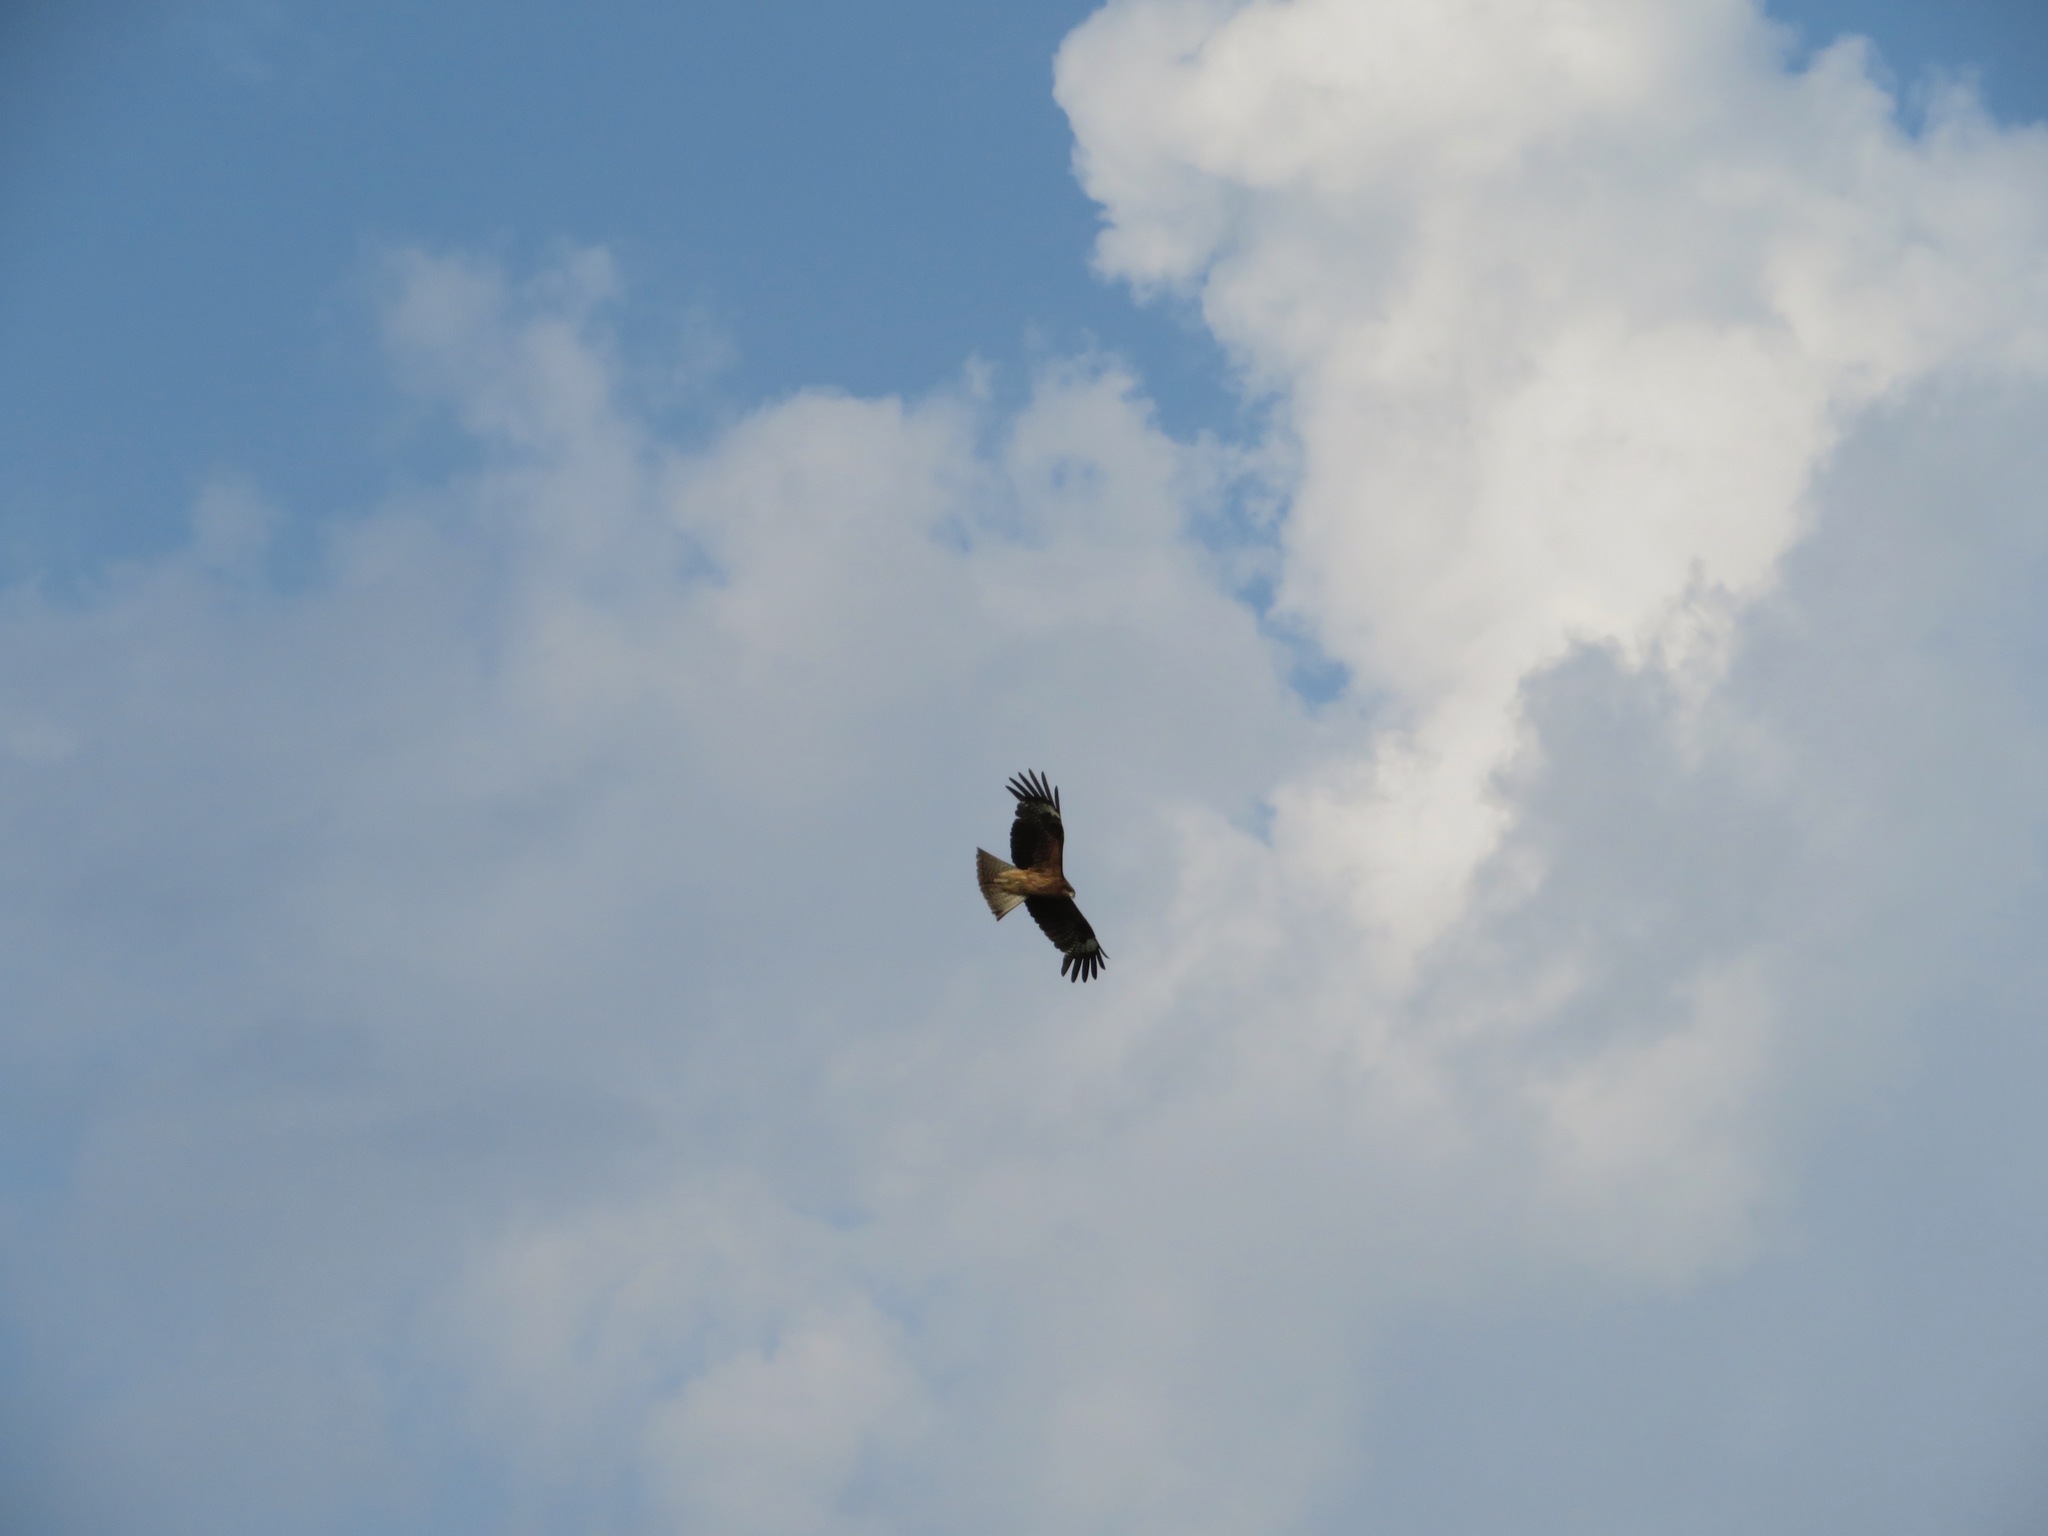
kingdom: Animalia
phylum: Chordata
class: Aves
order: Accipitriformes
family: Accipitridae
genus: Milvus
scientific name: Milvus migrans
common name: Black kite
